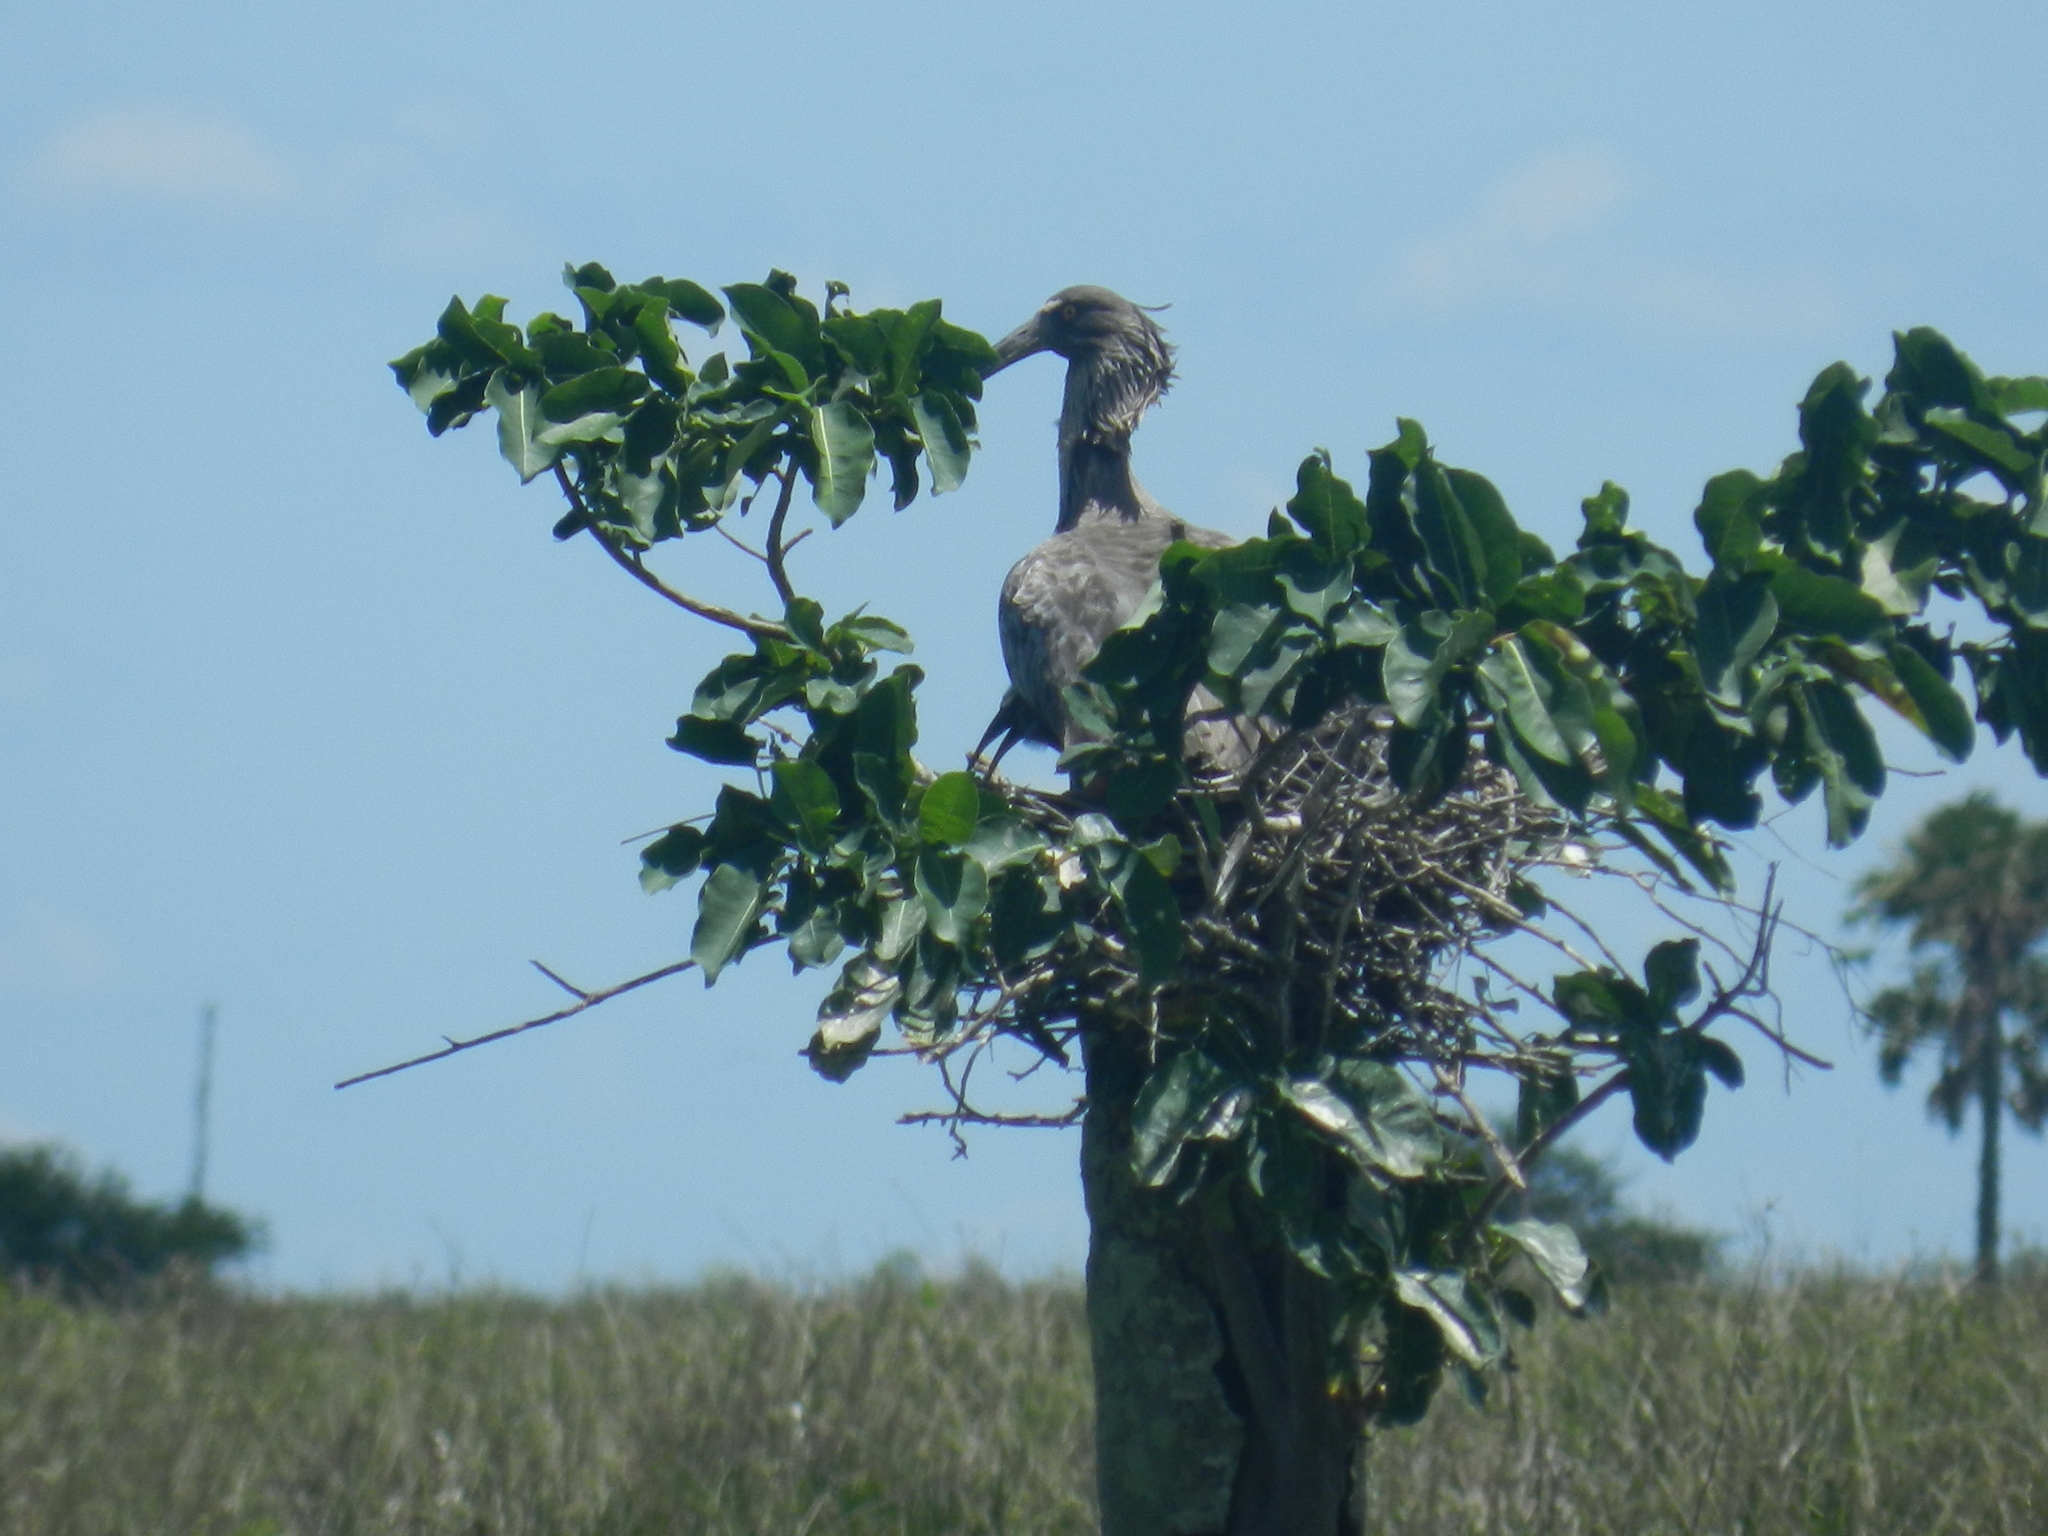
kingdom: Animalia
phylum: Chordata
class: Aves
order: Pelecaniformes
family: Threskiornithidae
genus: Theristicus
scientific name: Theristicus caerulescens
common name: Plumbeous ibis
